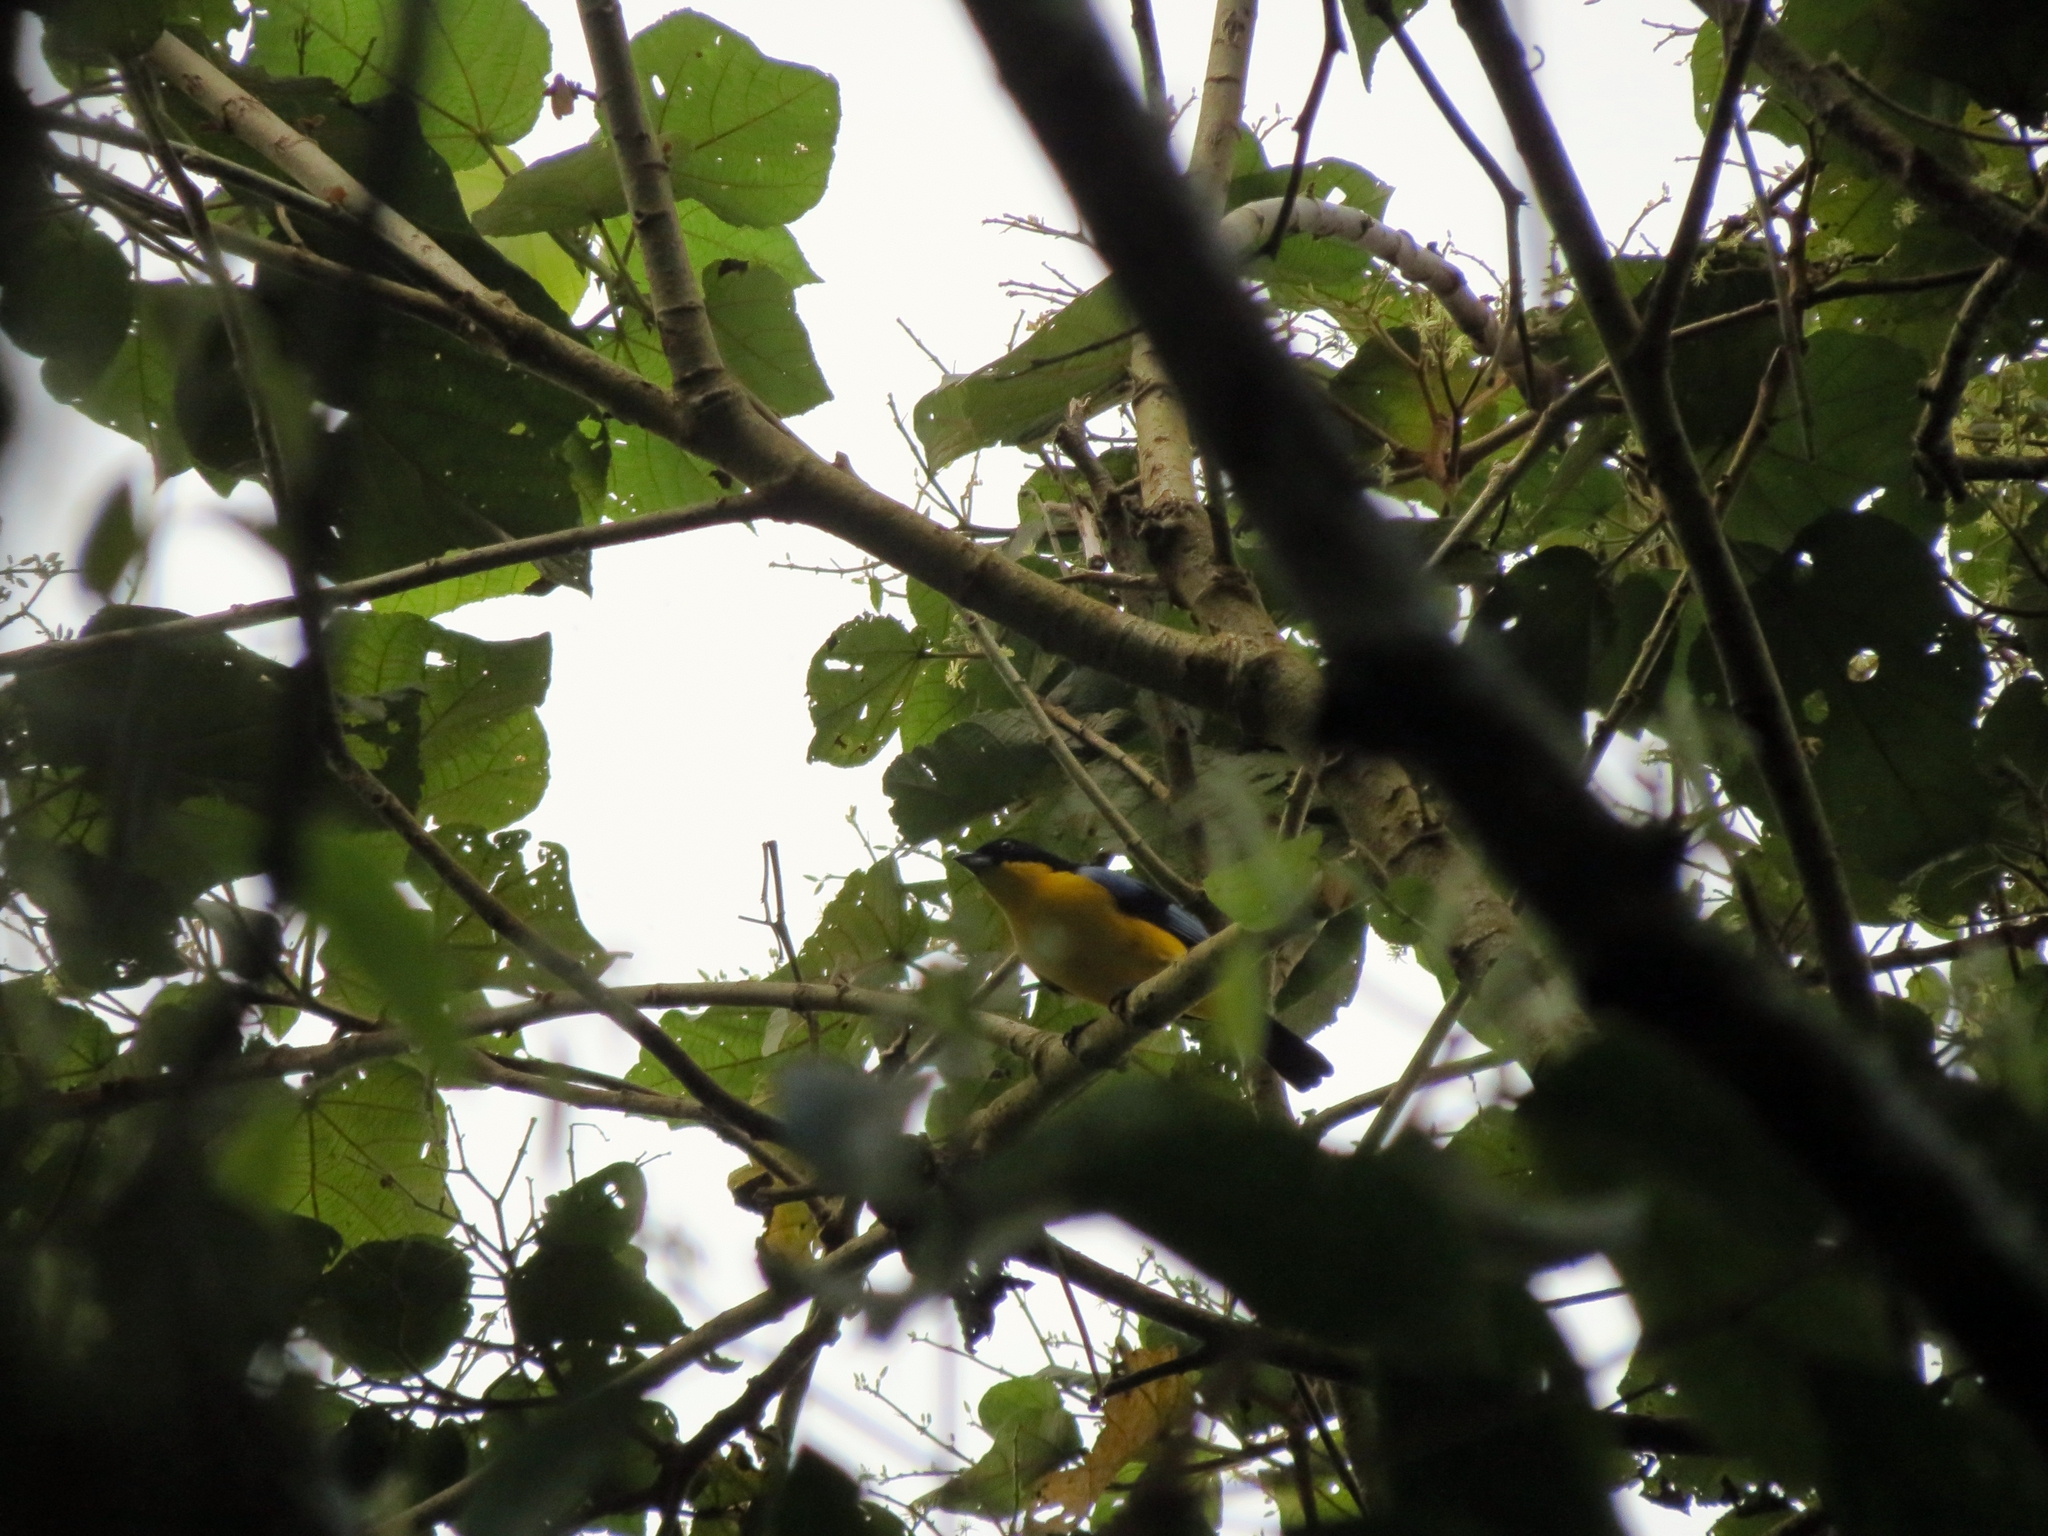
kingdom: Animalia
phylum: Chordata
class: Aves
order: Passeriformes
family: Thraupidae
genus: Anisognathus
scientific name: Anisognathus somptuosus
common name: Blue-winged mountain-tanager
